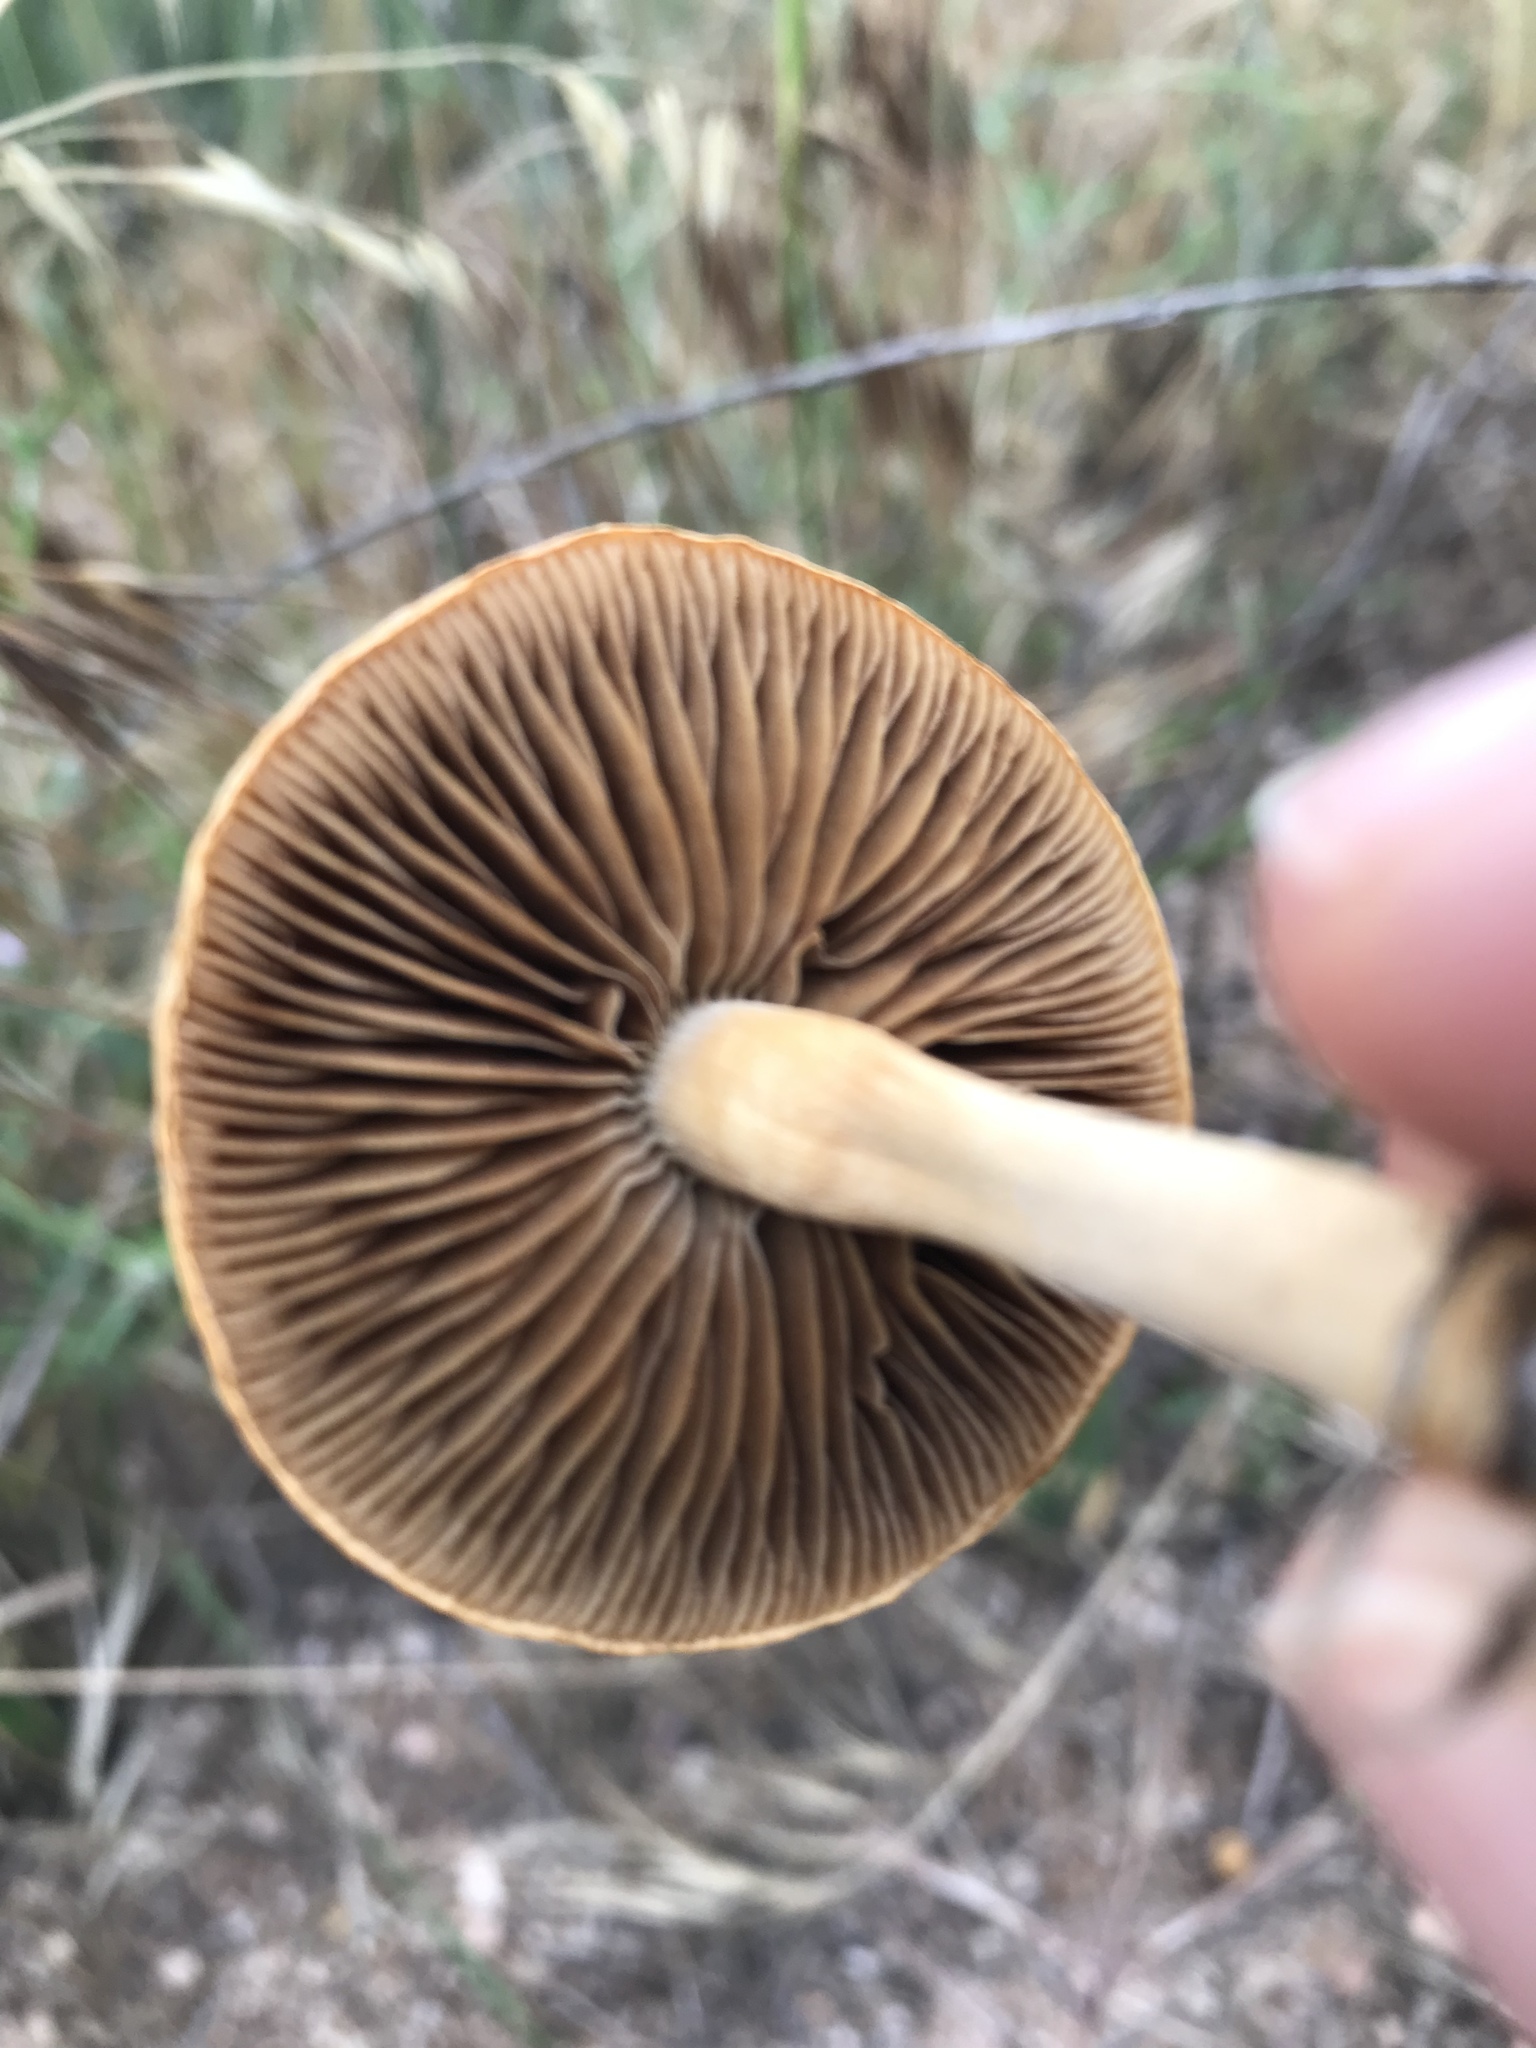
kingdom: Fungi
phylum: Basidiomycota
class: Agaricomycetes
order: Agaricales
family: Strophariaceae
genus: Agrocybe
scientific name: Agrocybe pediades
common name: Common fieldcap
